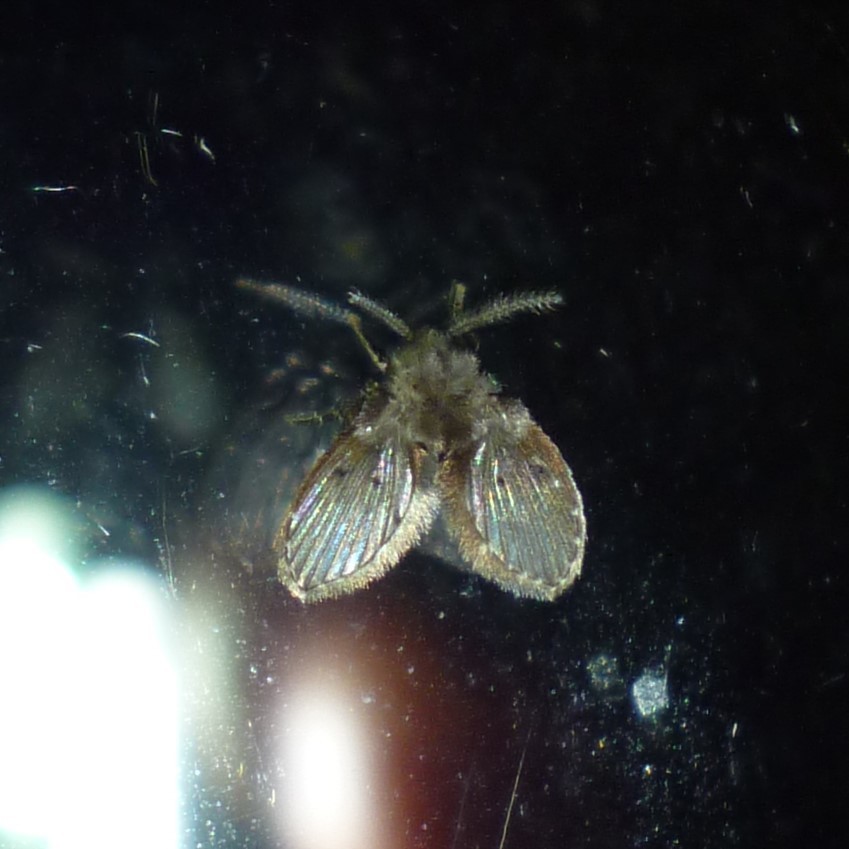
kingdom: Animalia
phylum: Arthropoda
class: Insecta
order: Diptera
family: Psychodidae
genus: Clogmia
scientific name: Clogmia albipunctatus
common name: White-spotted moth fly
